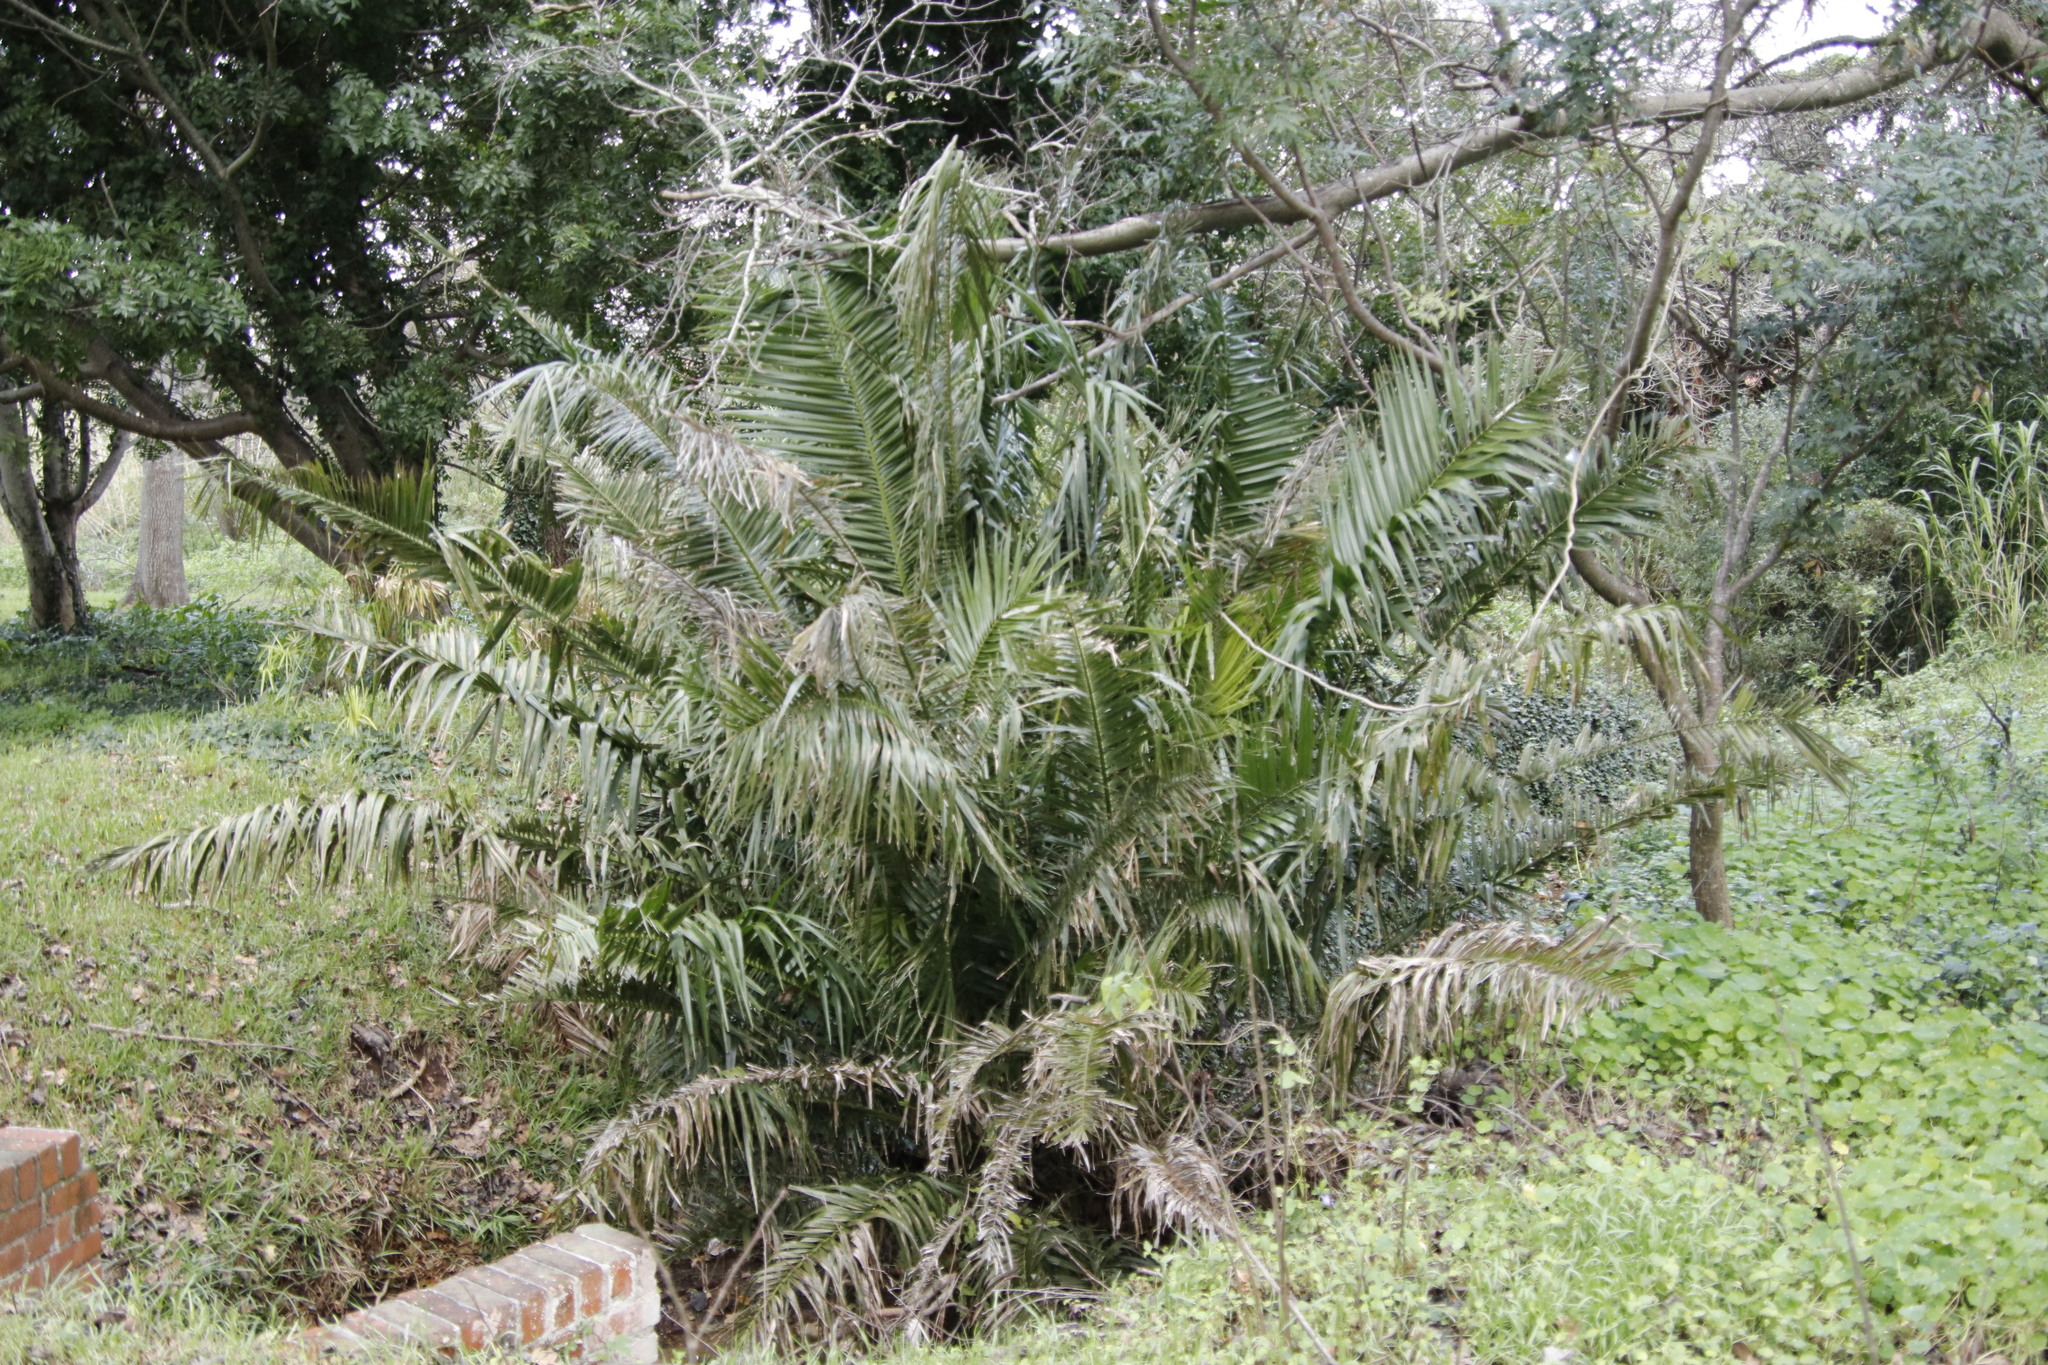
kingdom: Plantae
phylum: Tracheophyta
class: Liliopsida
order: Arecales
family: Arecaceae
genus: Phoenix
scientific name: Phoenix reclinata
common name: Senegal date palm
